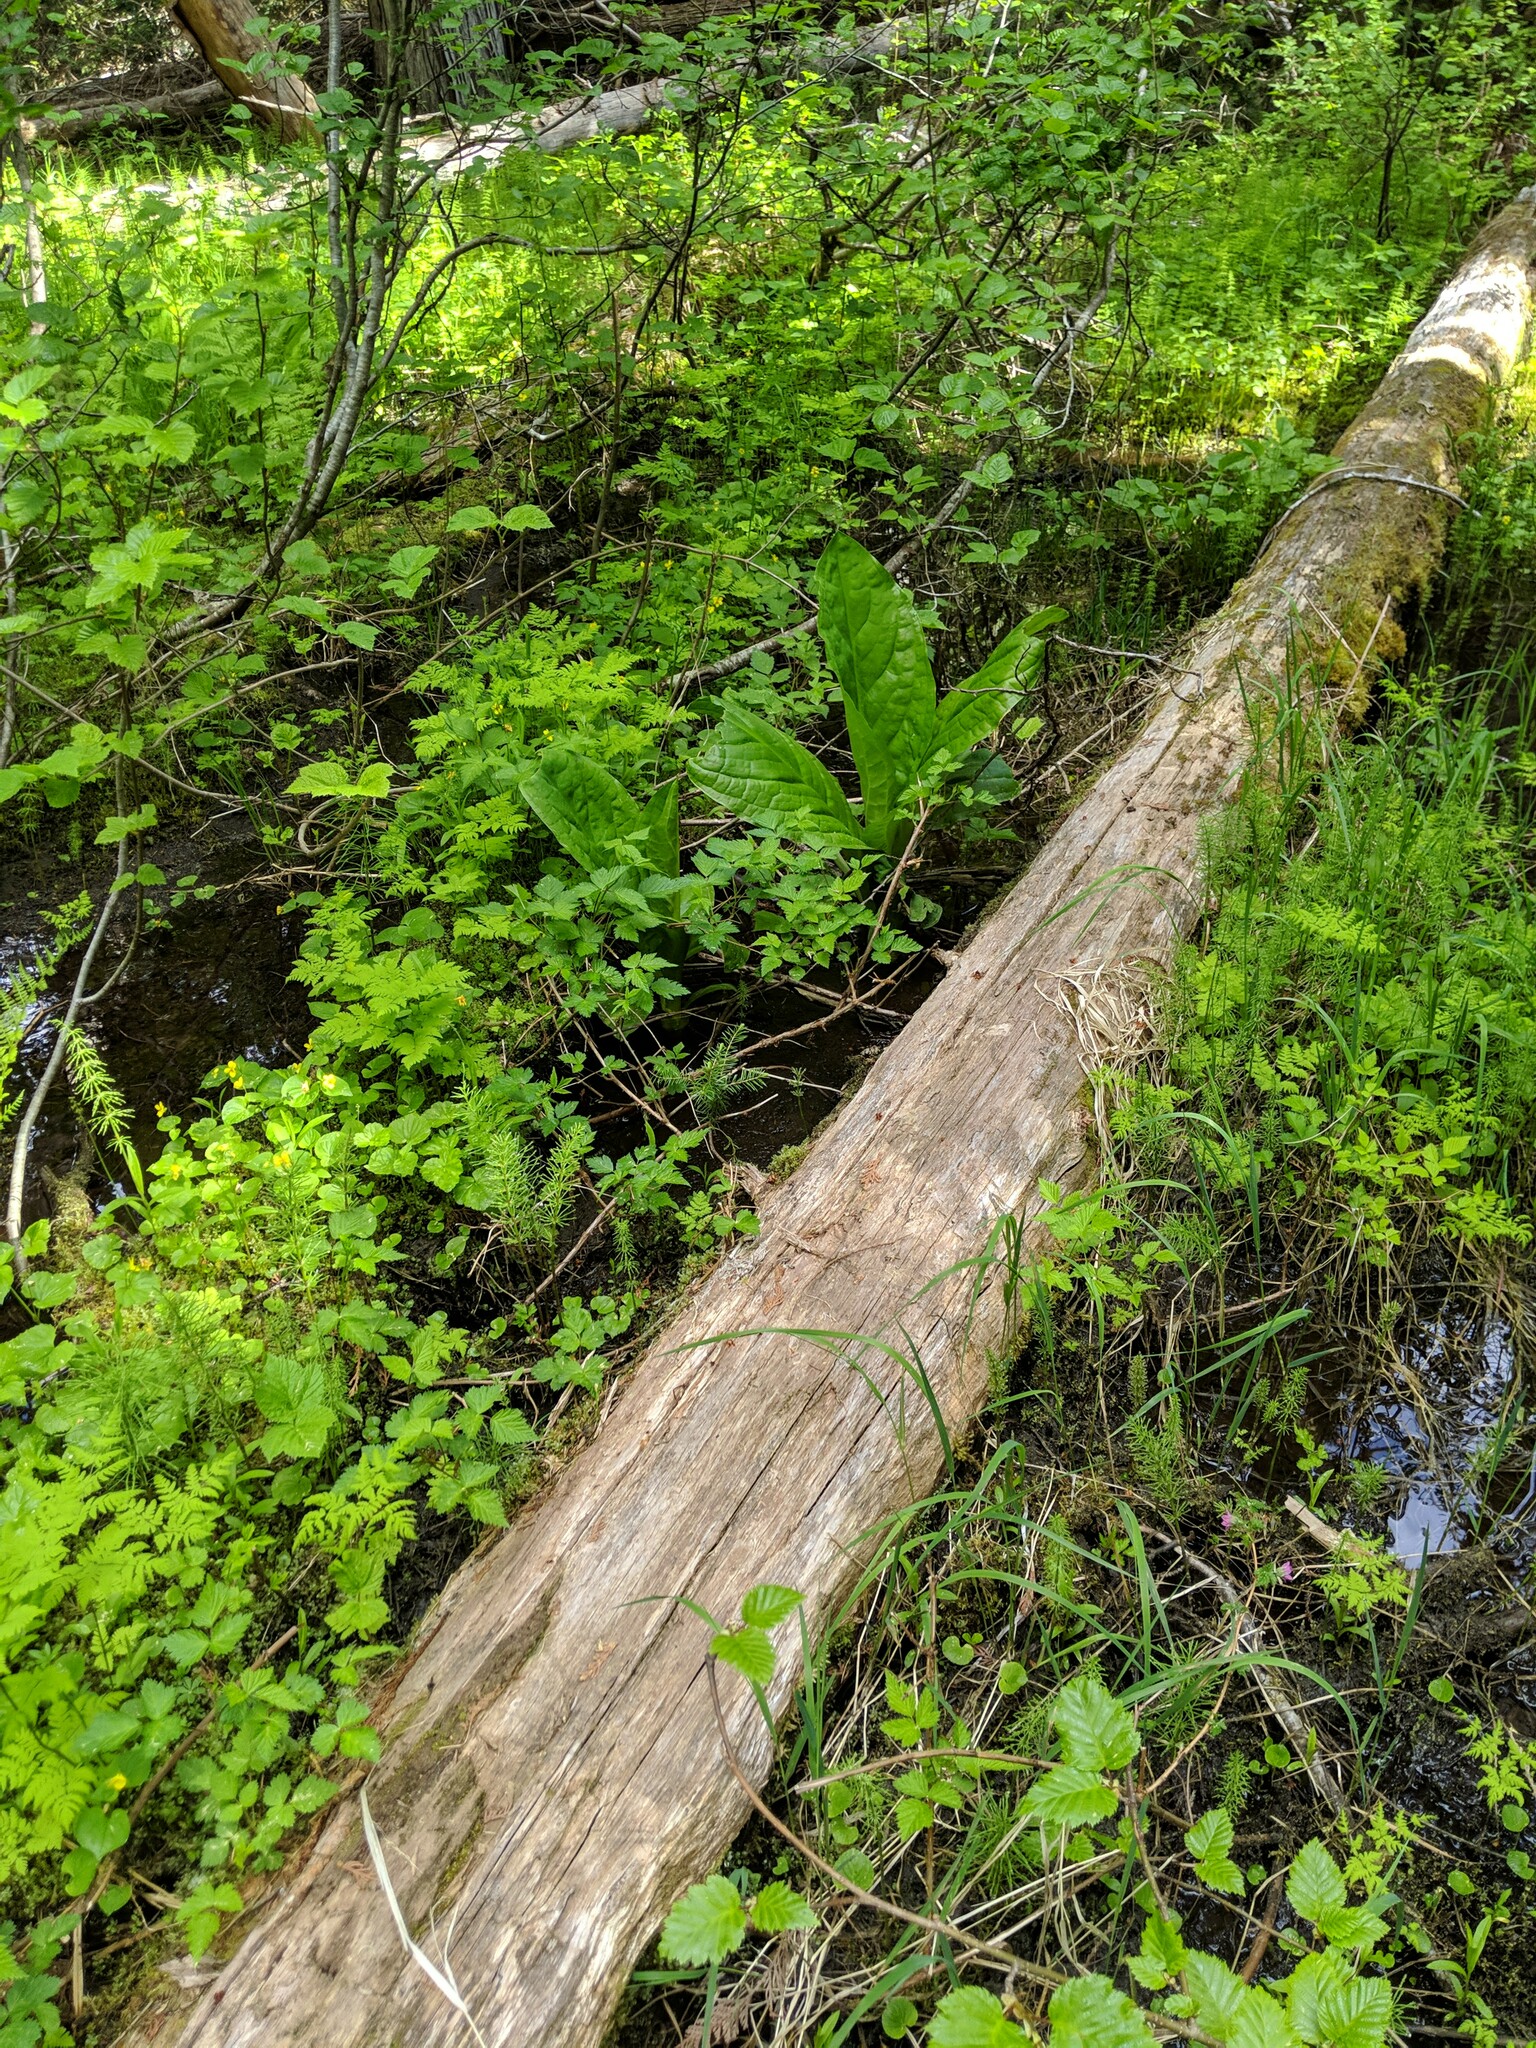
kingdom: Plantae
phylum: Tracheophyta
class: Liliopsida
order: Alismatales
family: Araceae
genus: Lysichiton
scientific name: Lysichiton americanus
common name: American skunk cabbage
